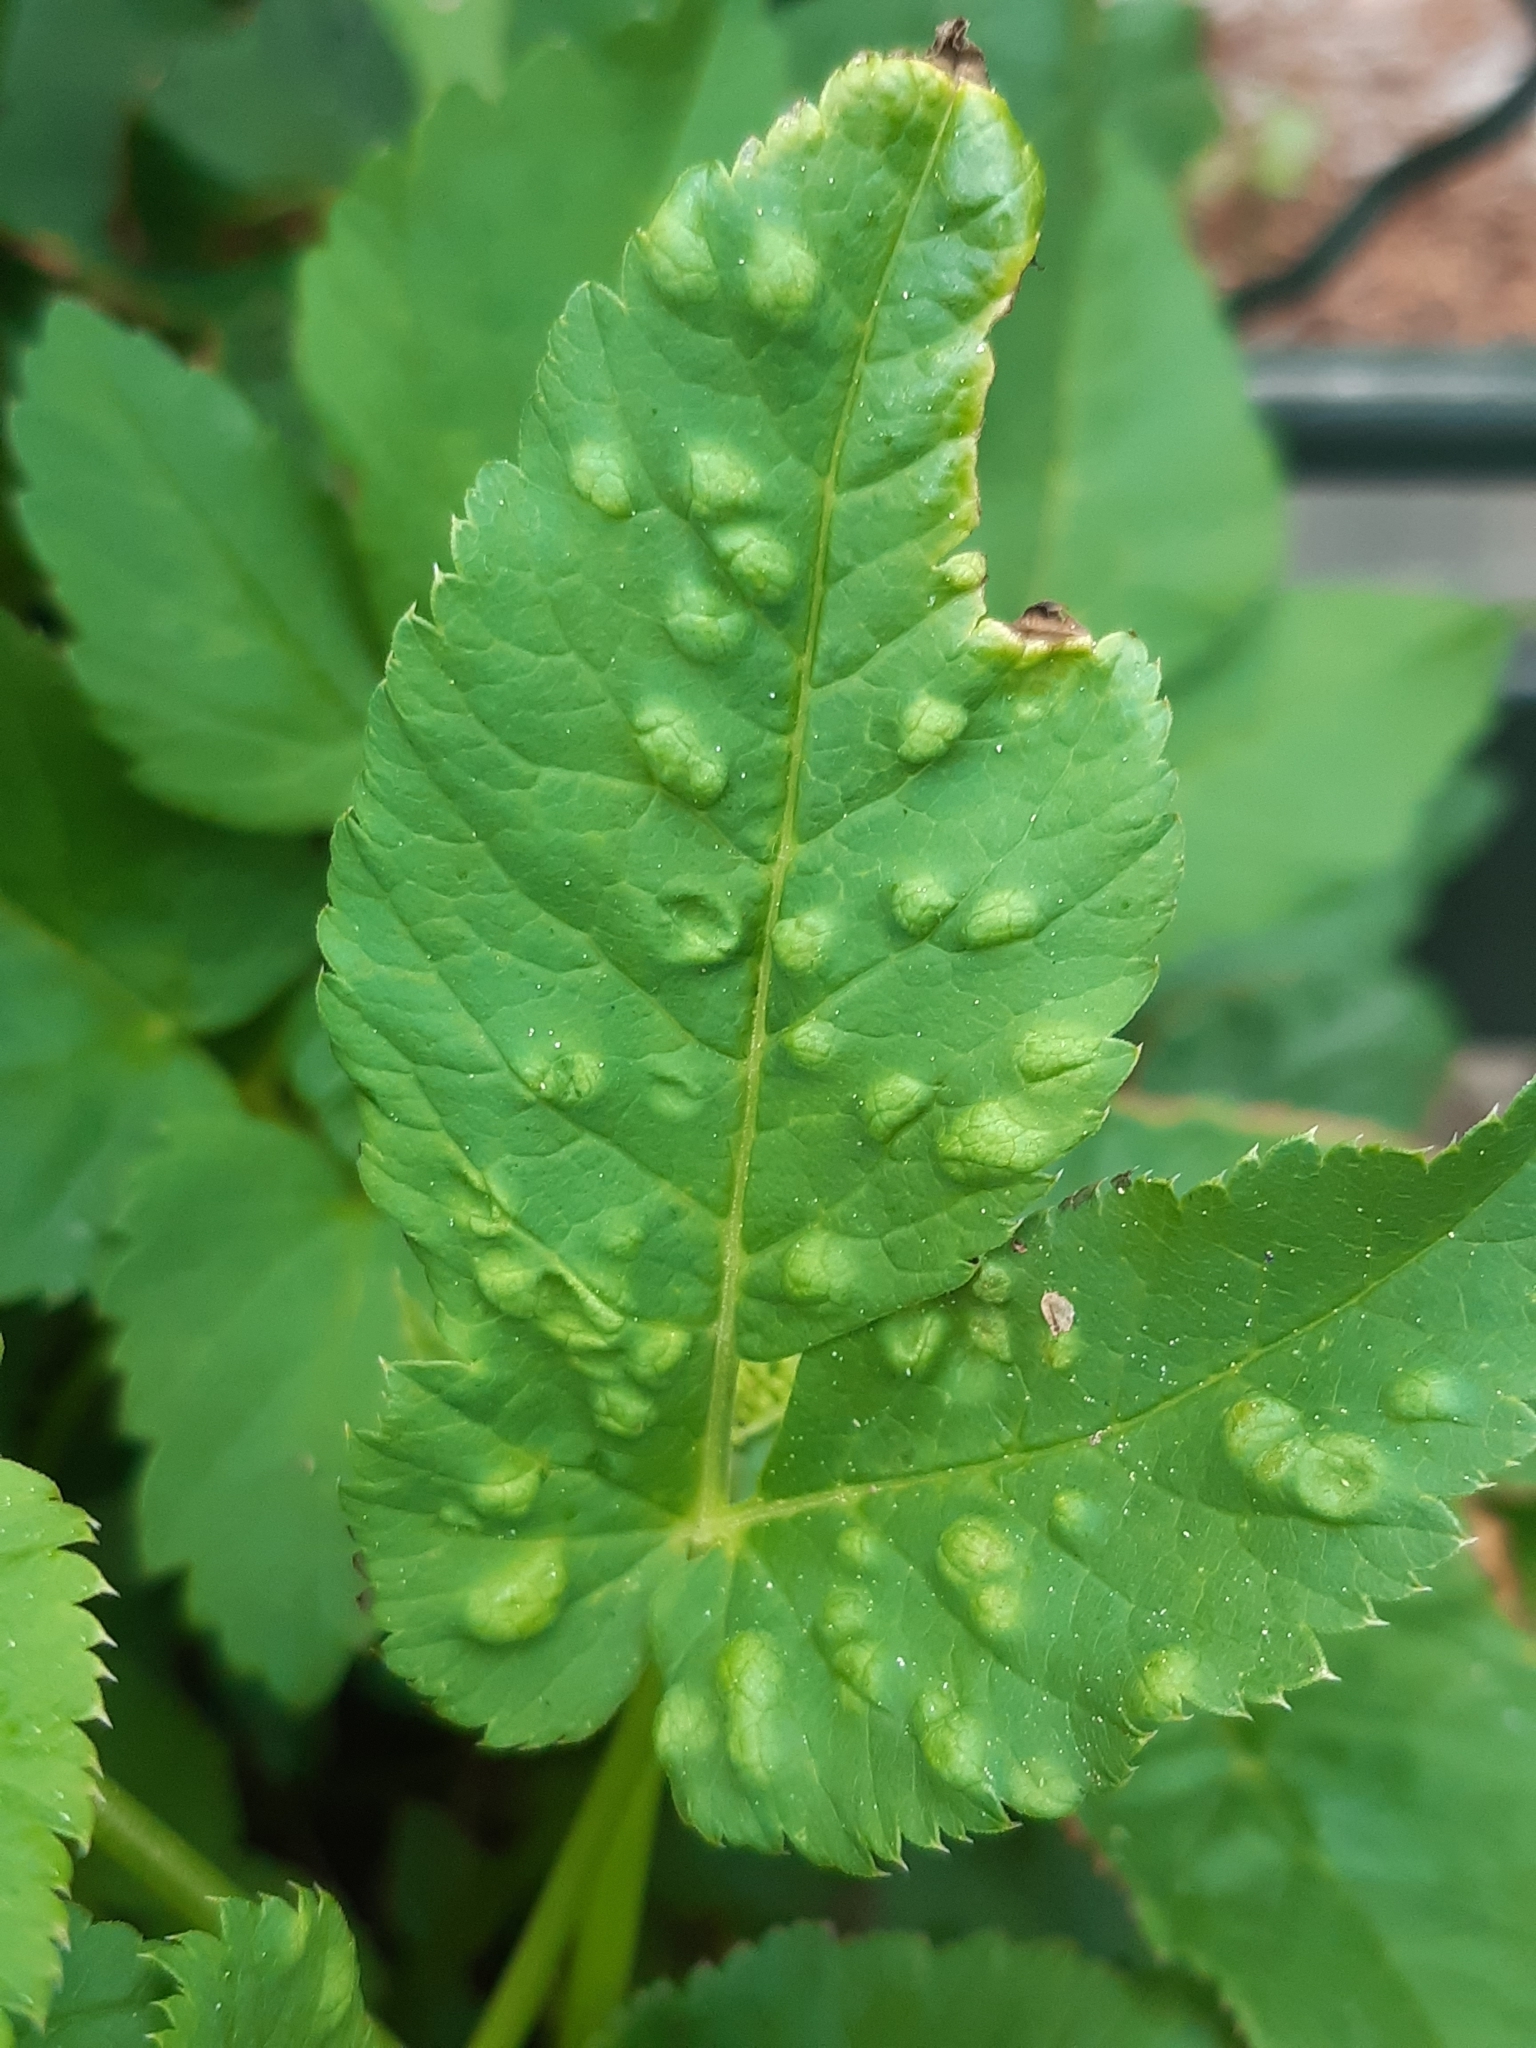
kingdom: Animalia
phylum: Arthropoda
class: Insecta
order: Hemiptera
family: Triozidae
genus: Trioza
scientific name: Trioza flavipennis
